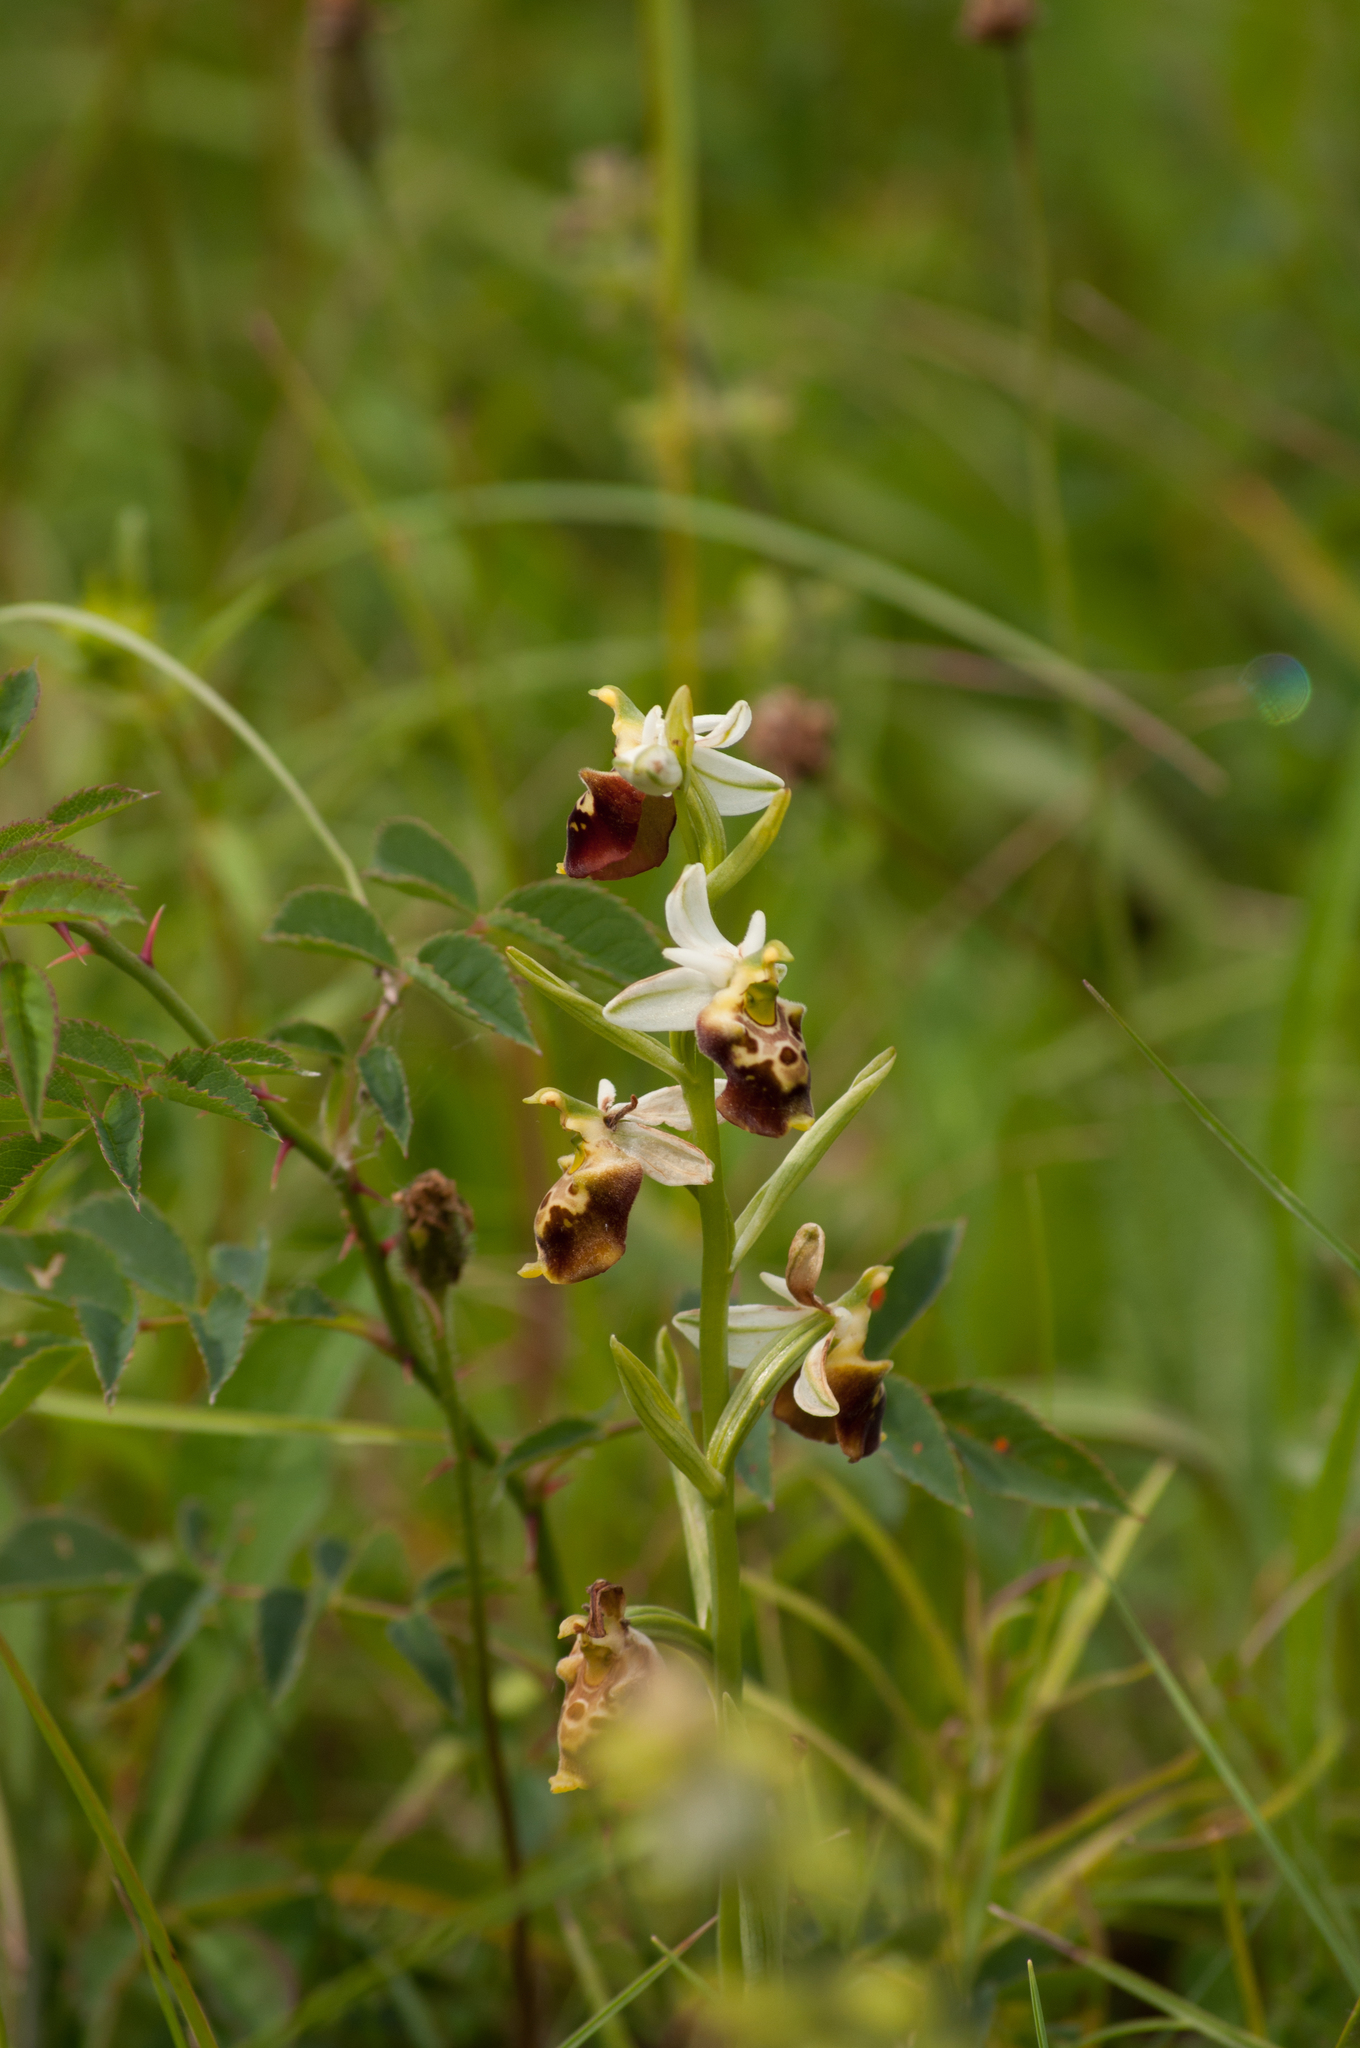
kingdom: Plantae
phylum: Tracheophyta
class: Liliopsida
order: Asparagales
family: Orchidaceae
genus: Ophrys
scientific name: Ophrys holosericea
